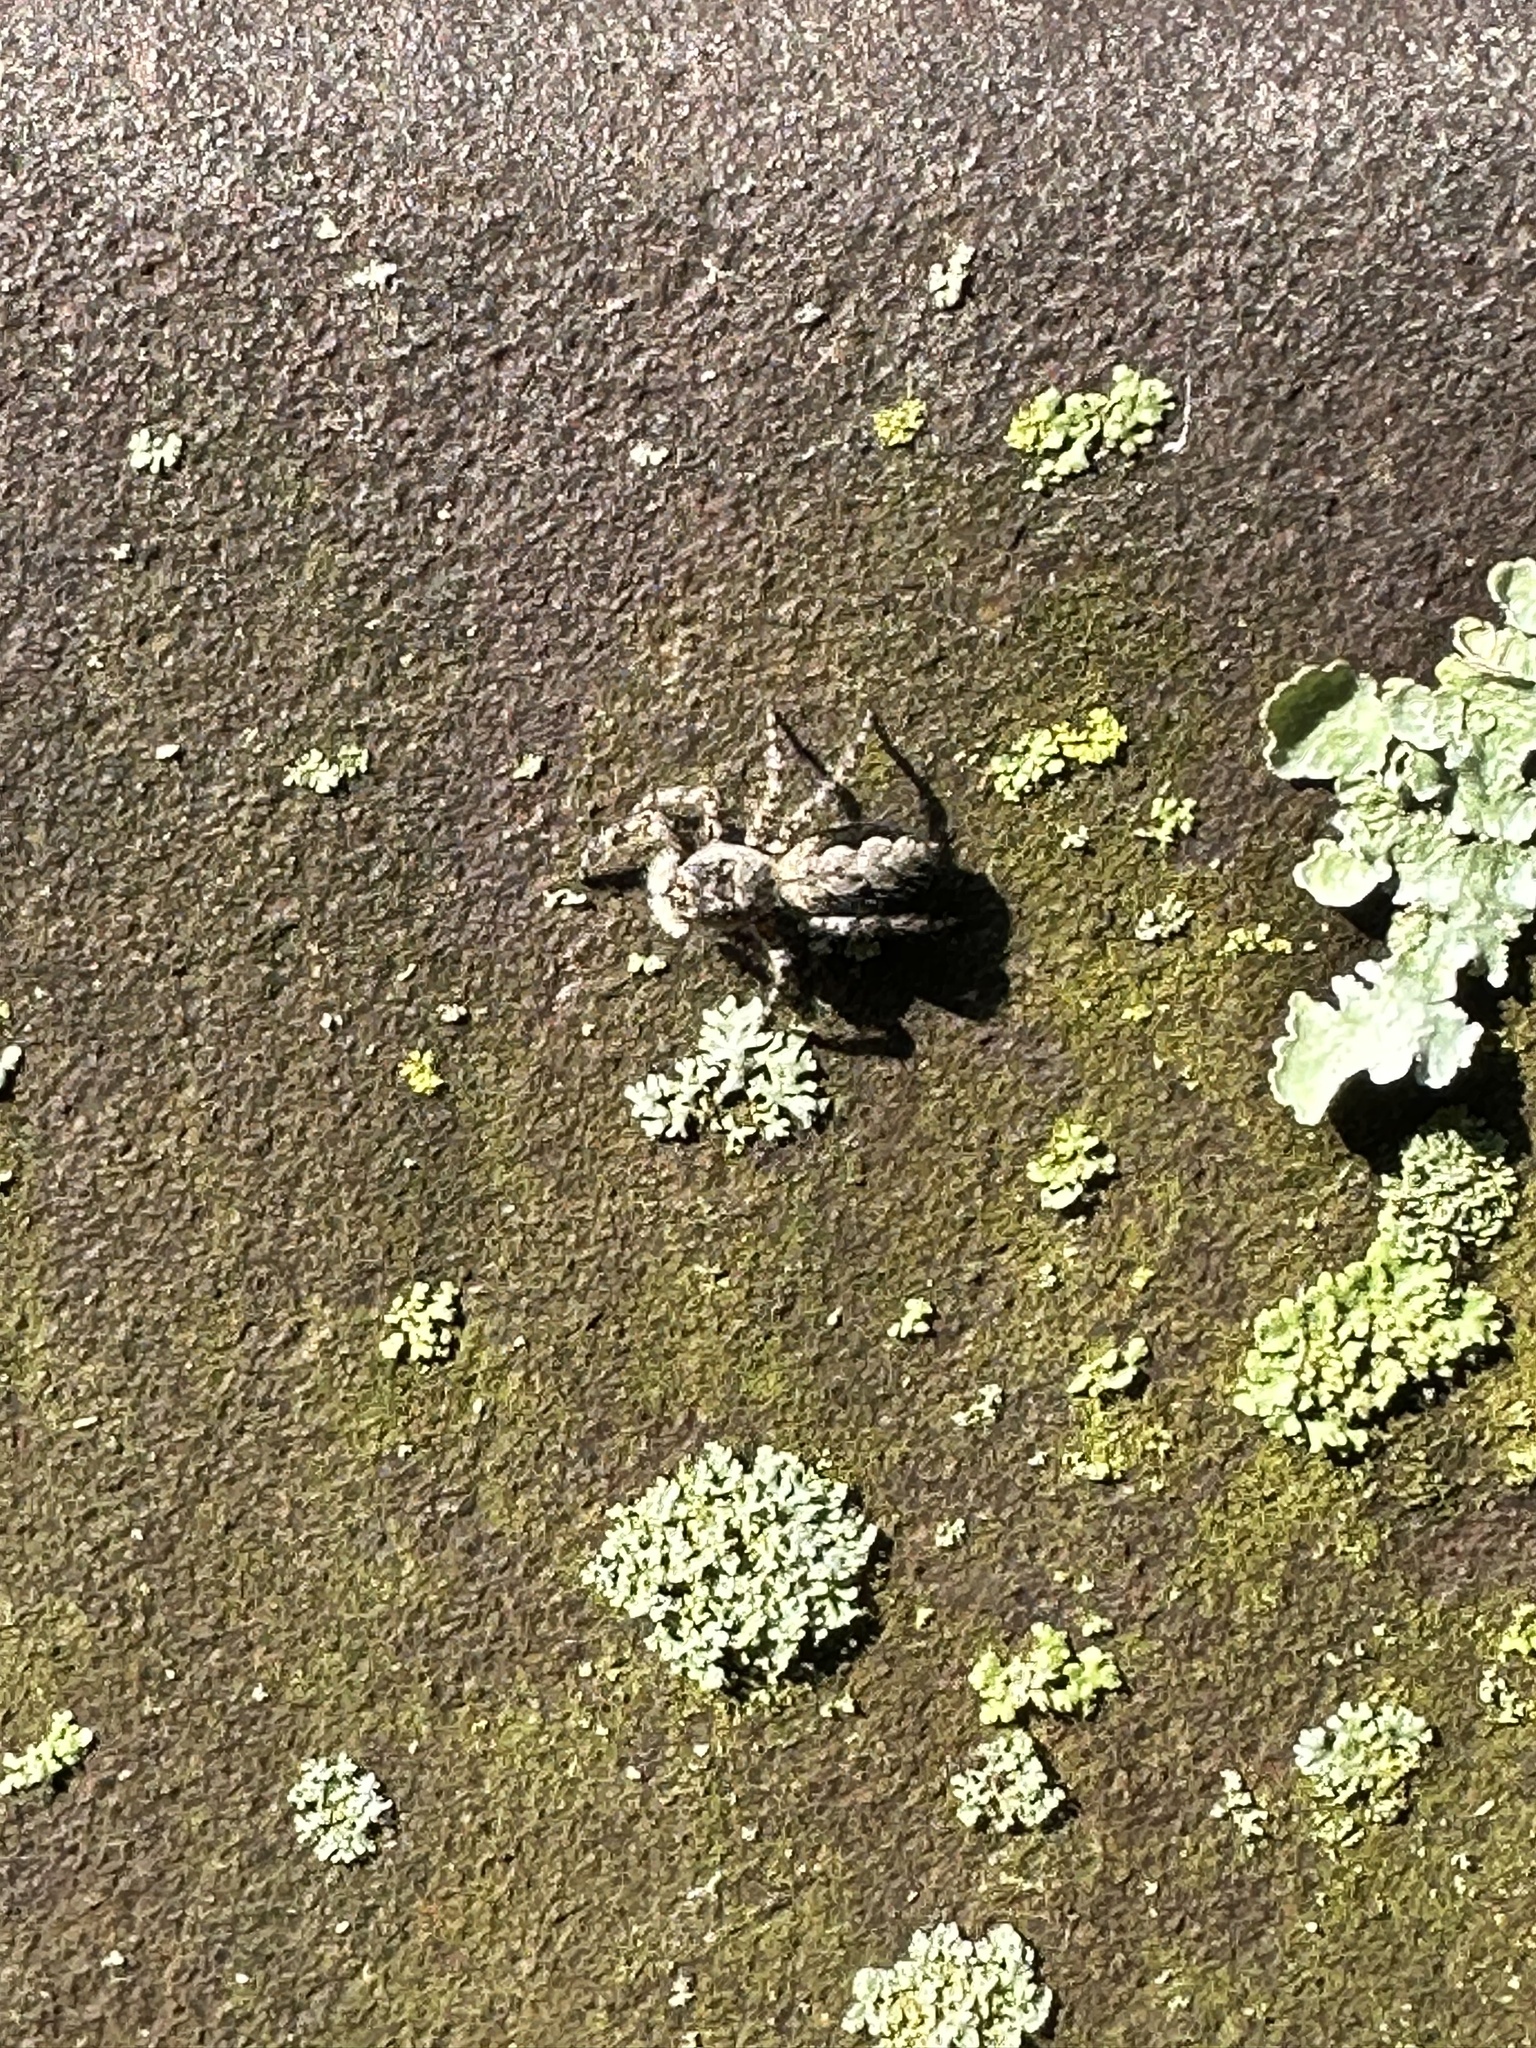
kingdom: Animalia
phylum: Arthropoda
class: Arachnida
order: Araneae
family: Salticidae
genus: Platycryptus
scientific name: Platycryptus undatus
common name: Tan jumping spider
